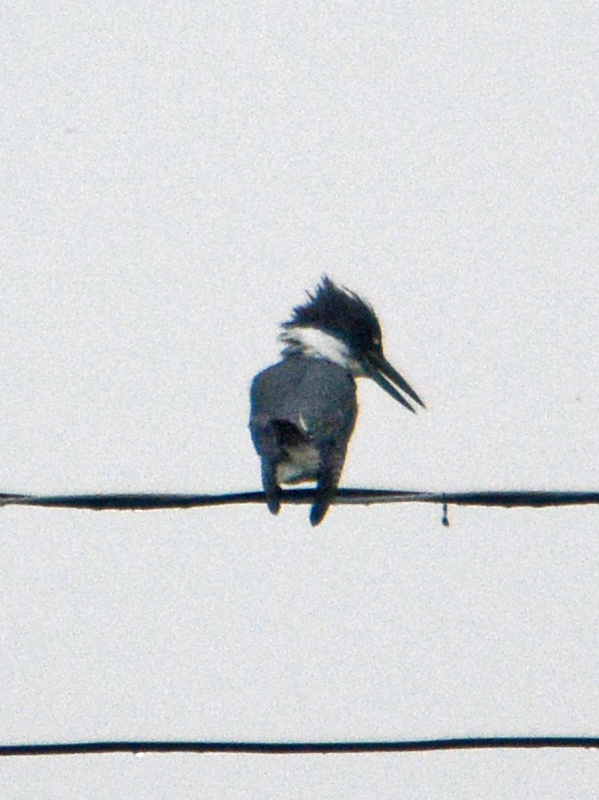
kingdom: Animalia
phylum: Chordata
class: Aves
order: Coraciiformes
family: Alcedinidae
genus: Megaceryle
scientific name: Megaceryle alcyon
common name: Belted kingfisher
